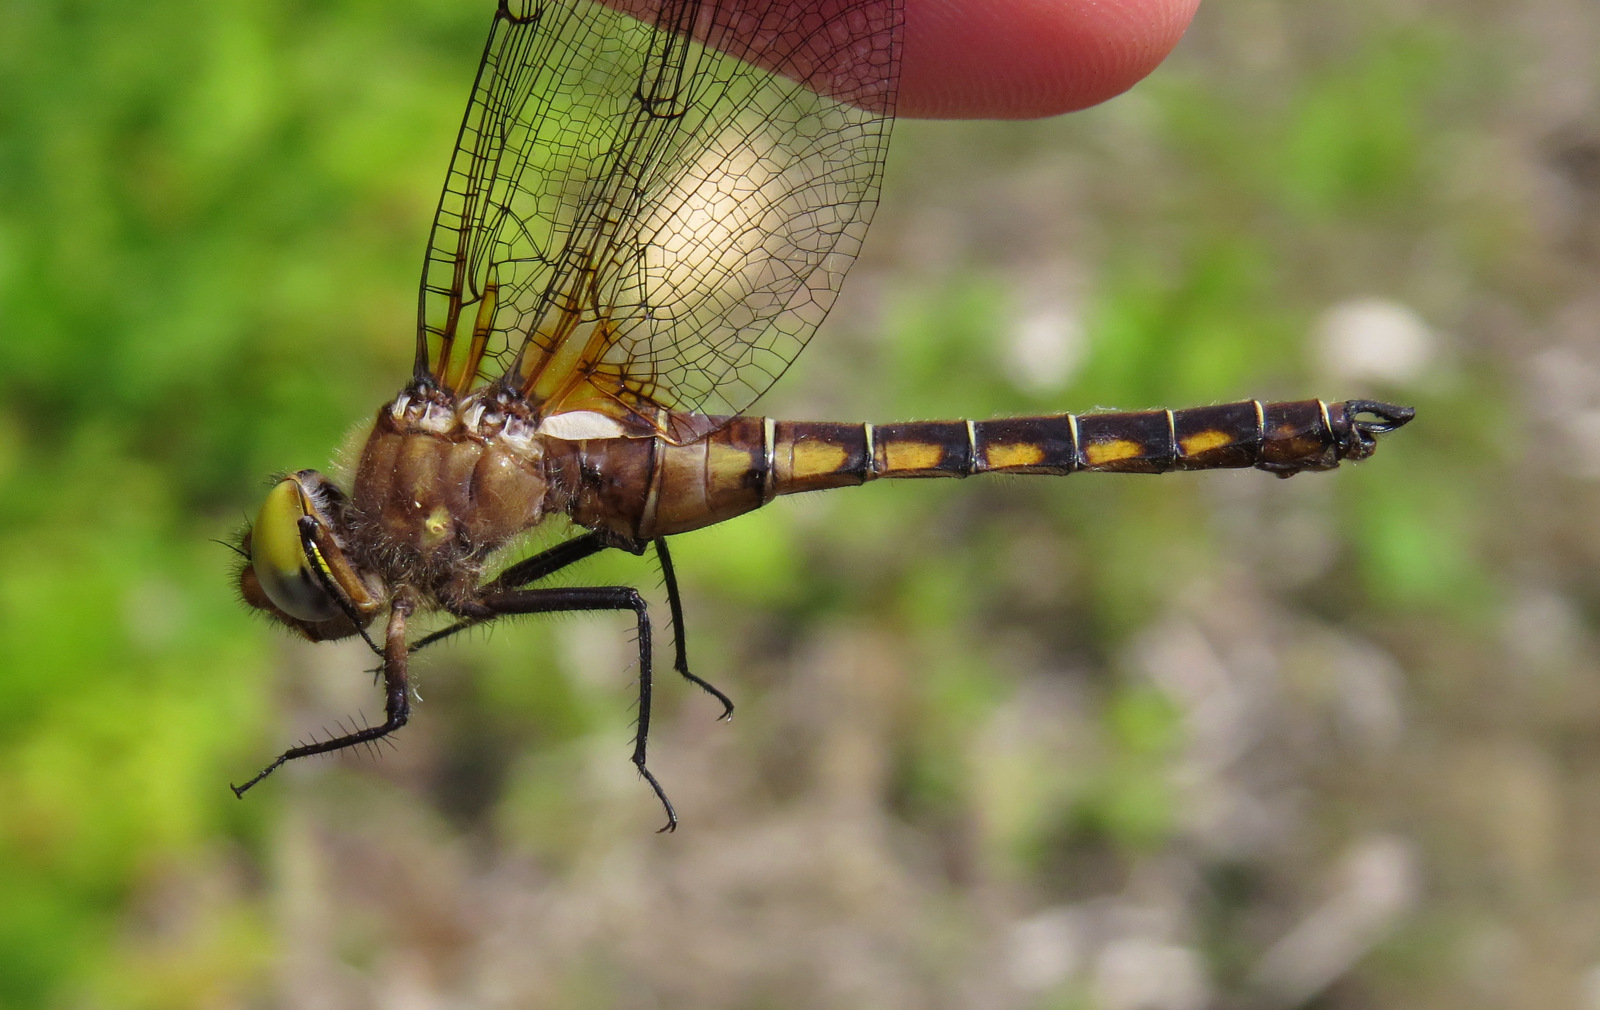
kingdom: Animalia
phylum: Arthropoda
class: Insecta
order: Odonata
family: Corduliidae
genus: Neurocordulia
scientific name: Neurocordulia michaeli
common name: Broad-tailed shadowdragon
